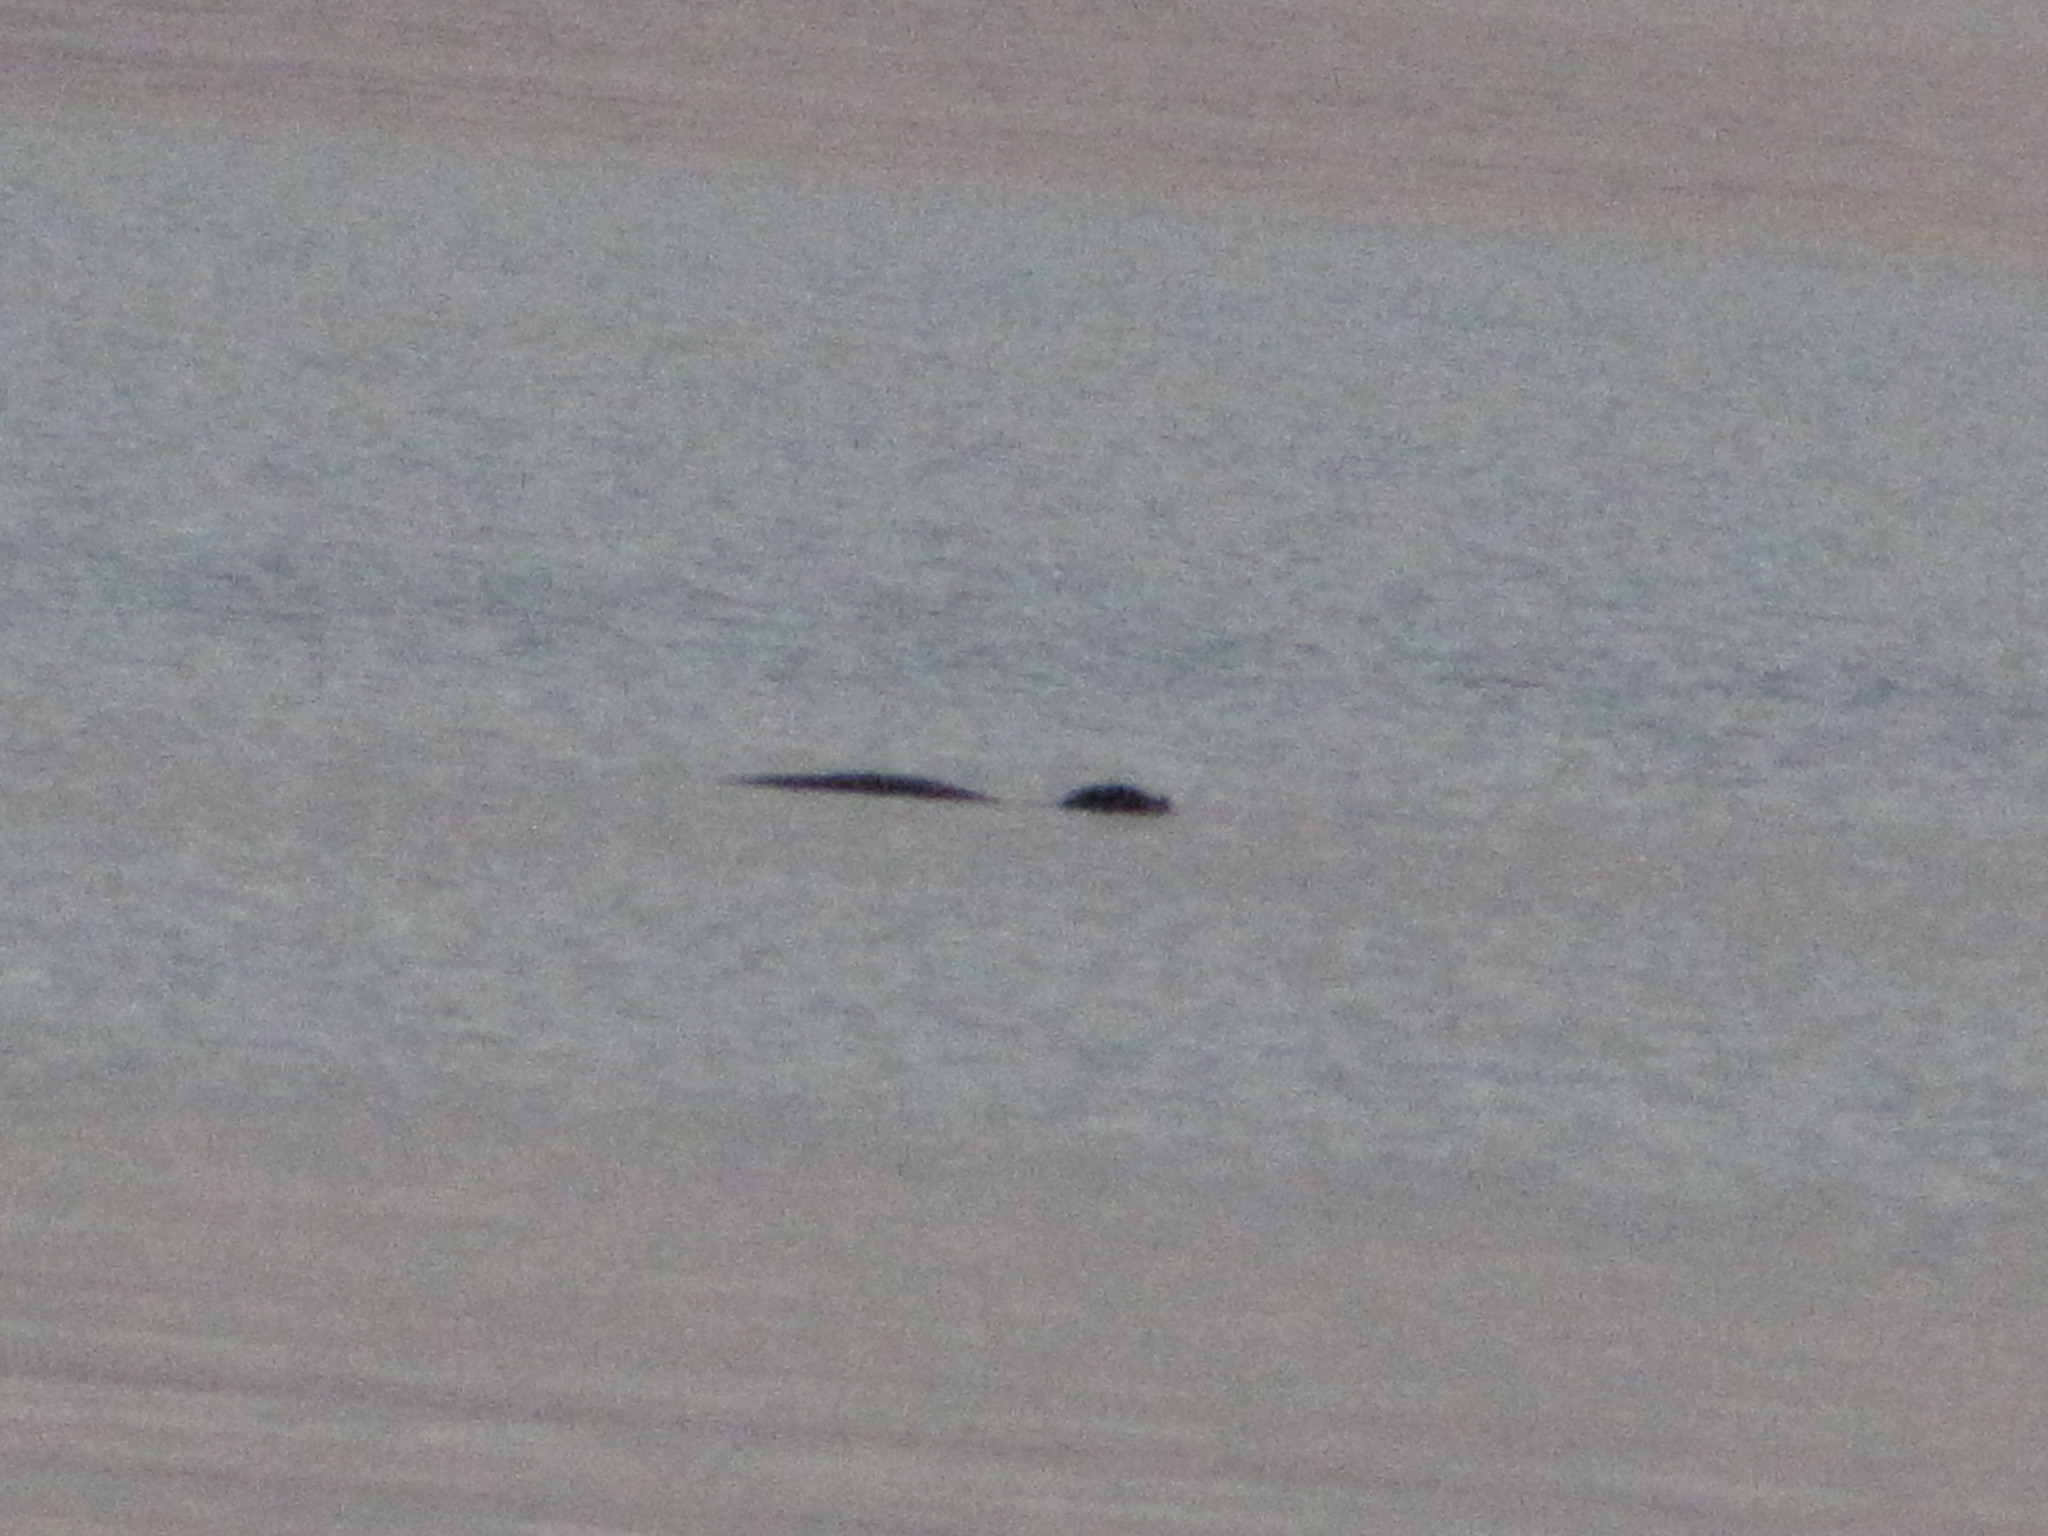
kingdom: Animalia
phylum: Chordata
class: Mammalia
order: Carnivora
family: Phocidae
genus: Phoca
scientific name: Phoca vitulina
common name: Harbor seal
